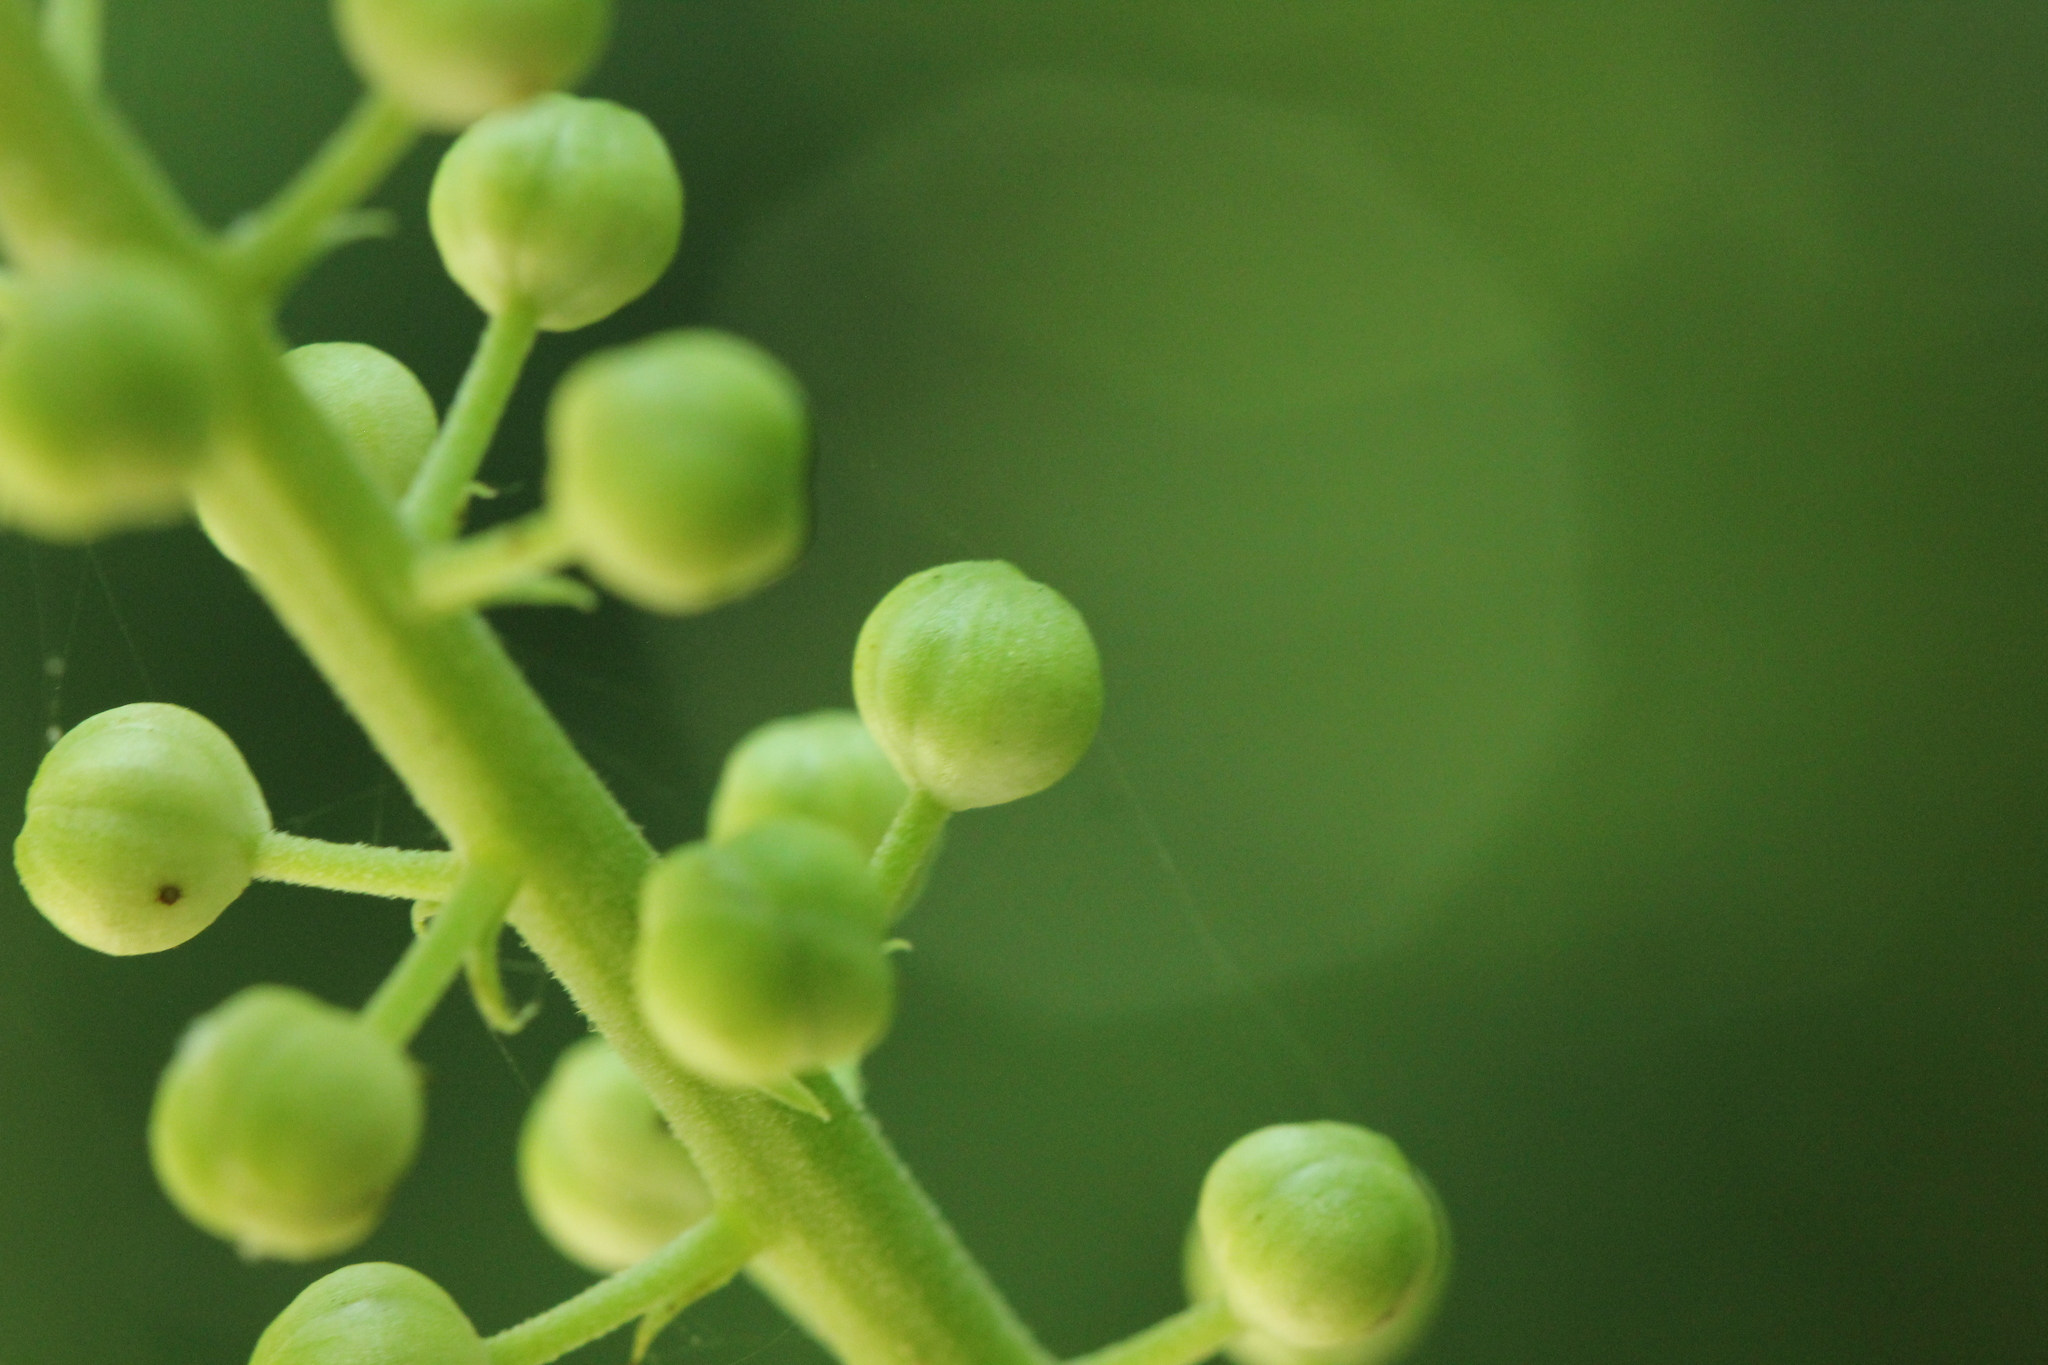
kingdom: Plantae
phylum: Tracheophyta
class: Magnoliopsida
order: Ranunculales
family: Ranunculaceae
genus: Actaea
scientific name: Actaea racemosa
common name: Black cohosh
